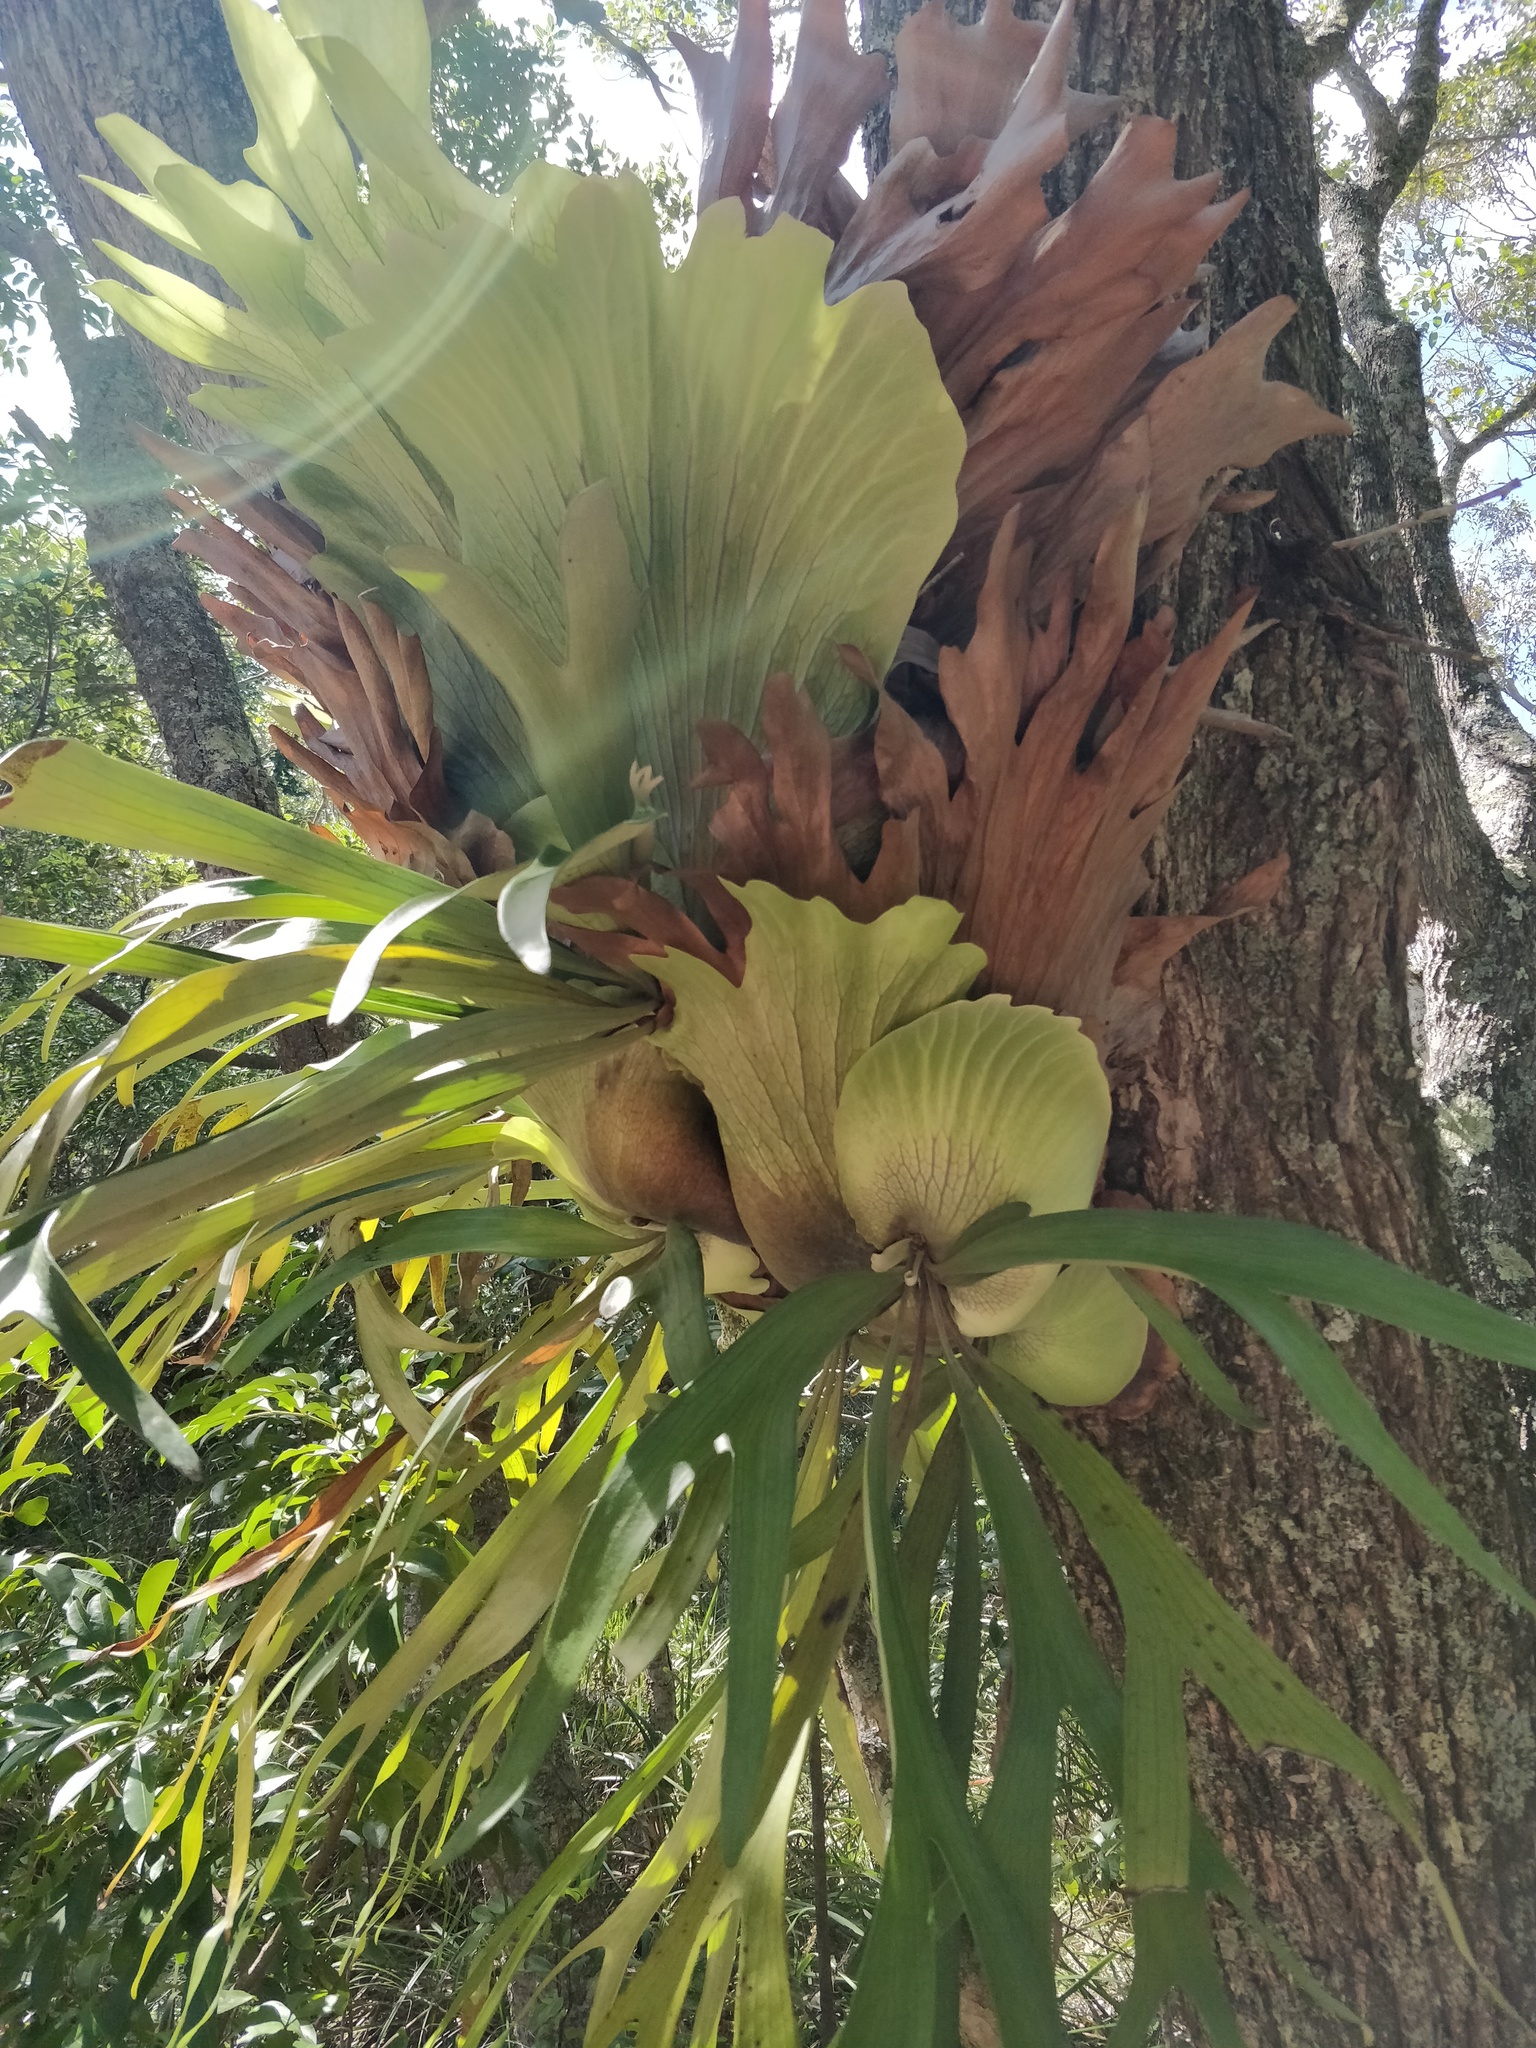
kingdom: Plantae
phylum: Tracheophyta
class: Polypodiopsida
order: Polypodiales
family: Polypodiaceae
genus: Platycerium
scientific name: Platycerium bifurcatum
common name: Elkhorn fern
